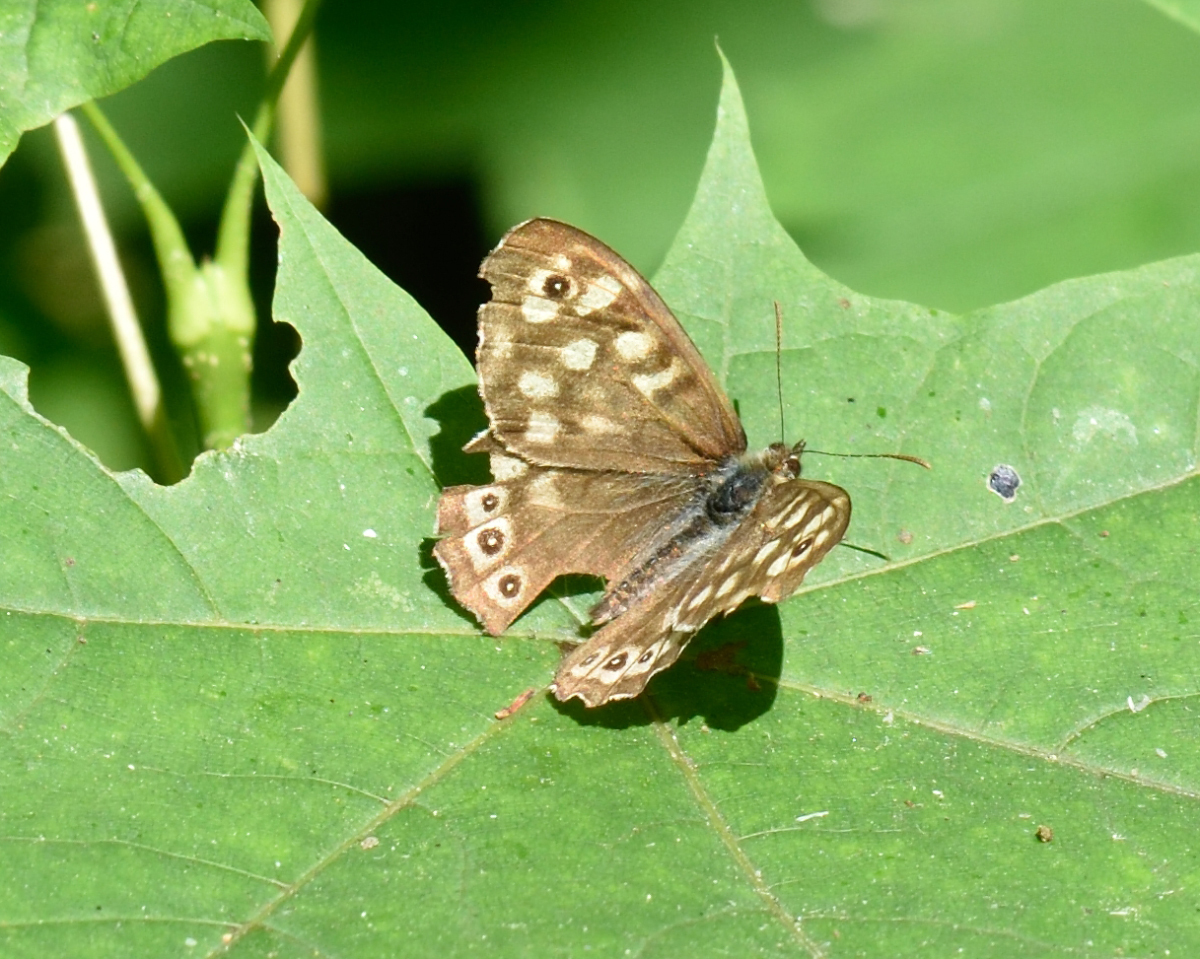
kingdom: Animalia
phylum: Arthropoda
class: Insecta
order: Lepidoptera
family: Nymphalidae
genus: Pararge
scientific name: Pararge aegeria
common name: Speckled wood
